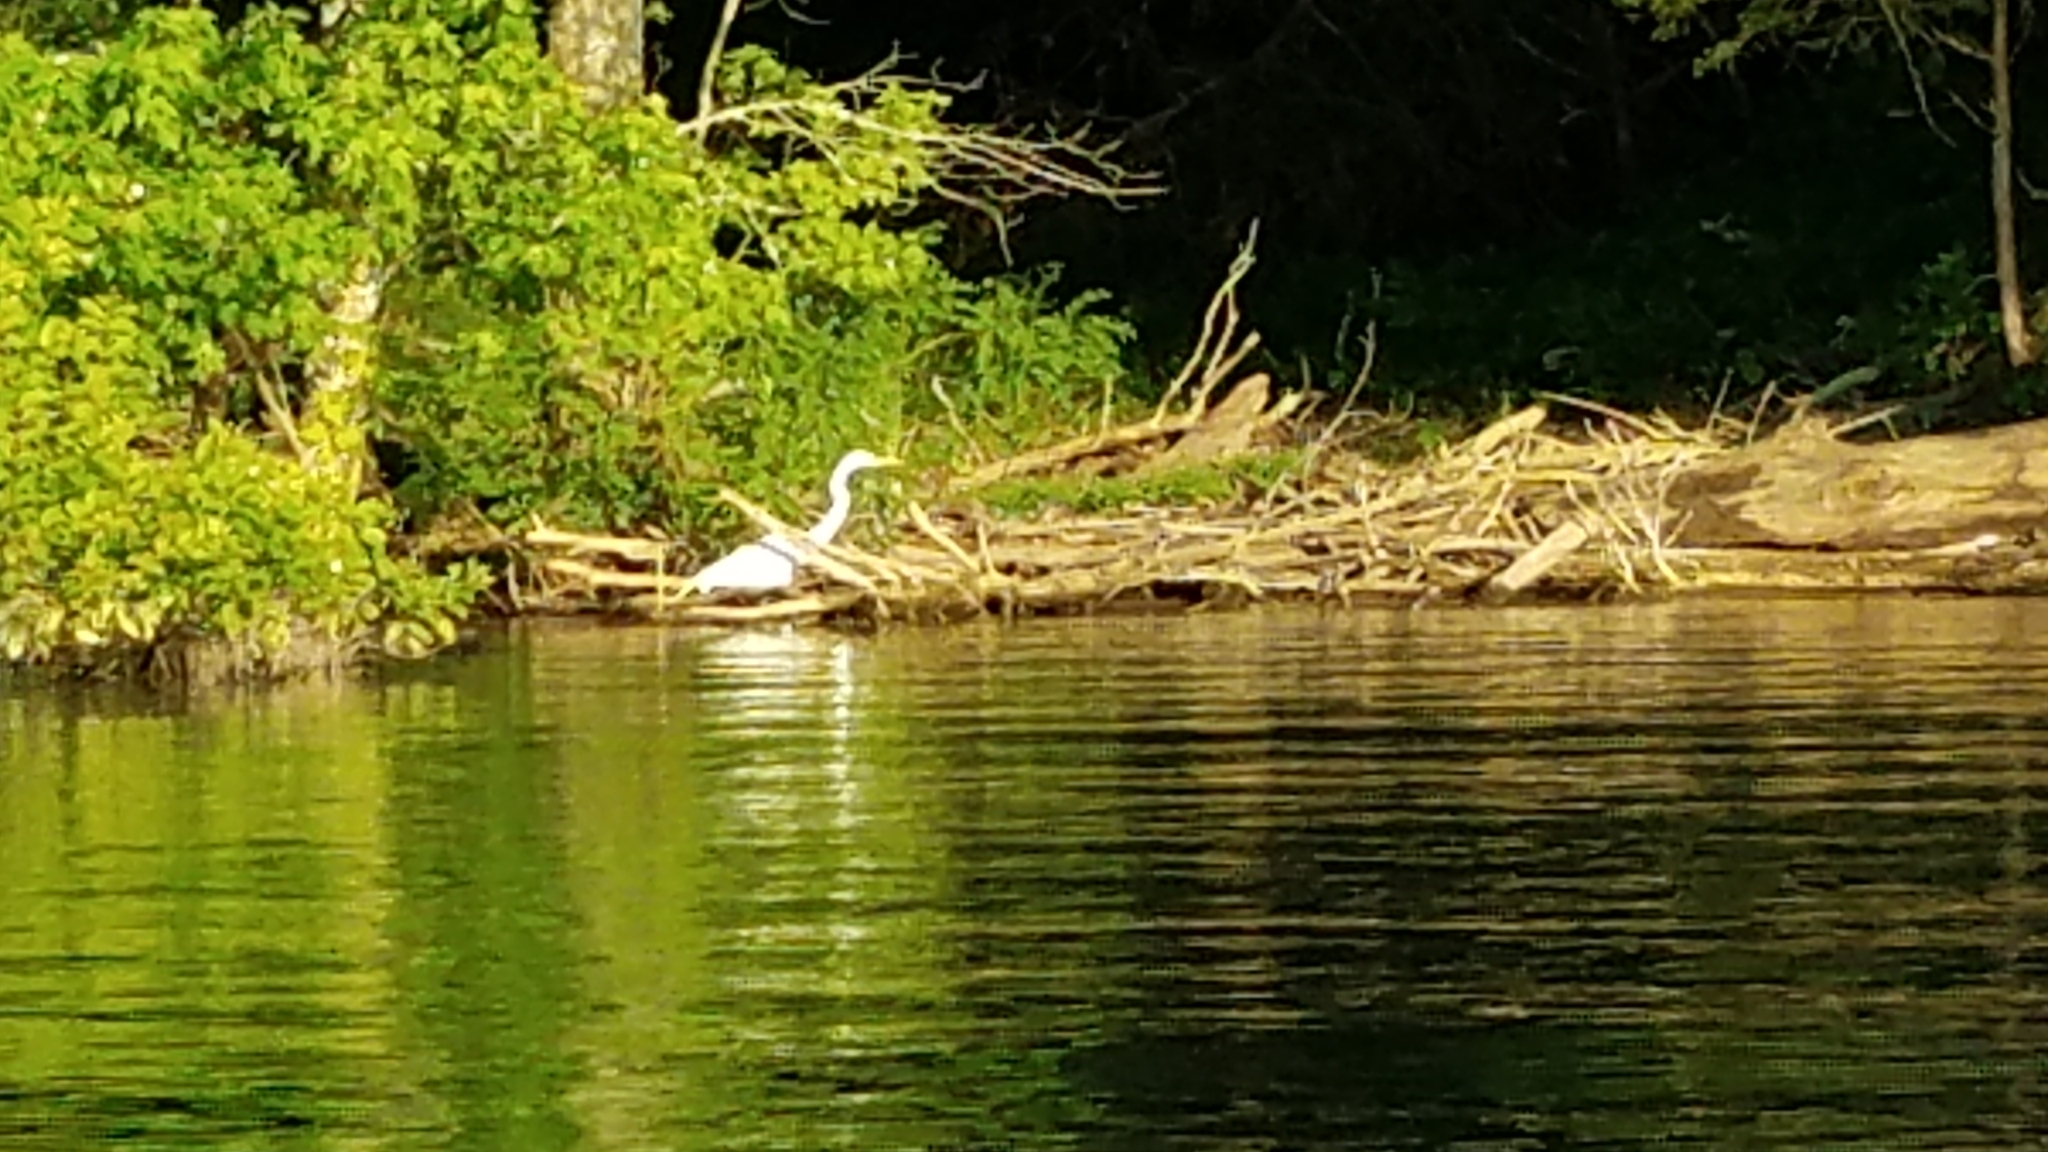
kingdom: Animalia
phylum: Chordata
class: Aves
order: Pelecaniformes
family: Ardeidae
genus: Ardea
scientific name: Ardea alba
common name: Great egret
